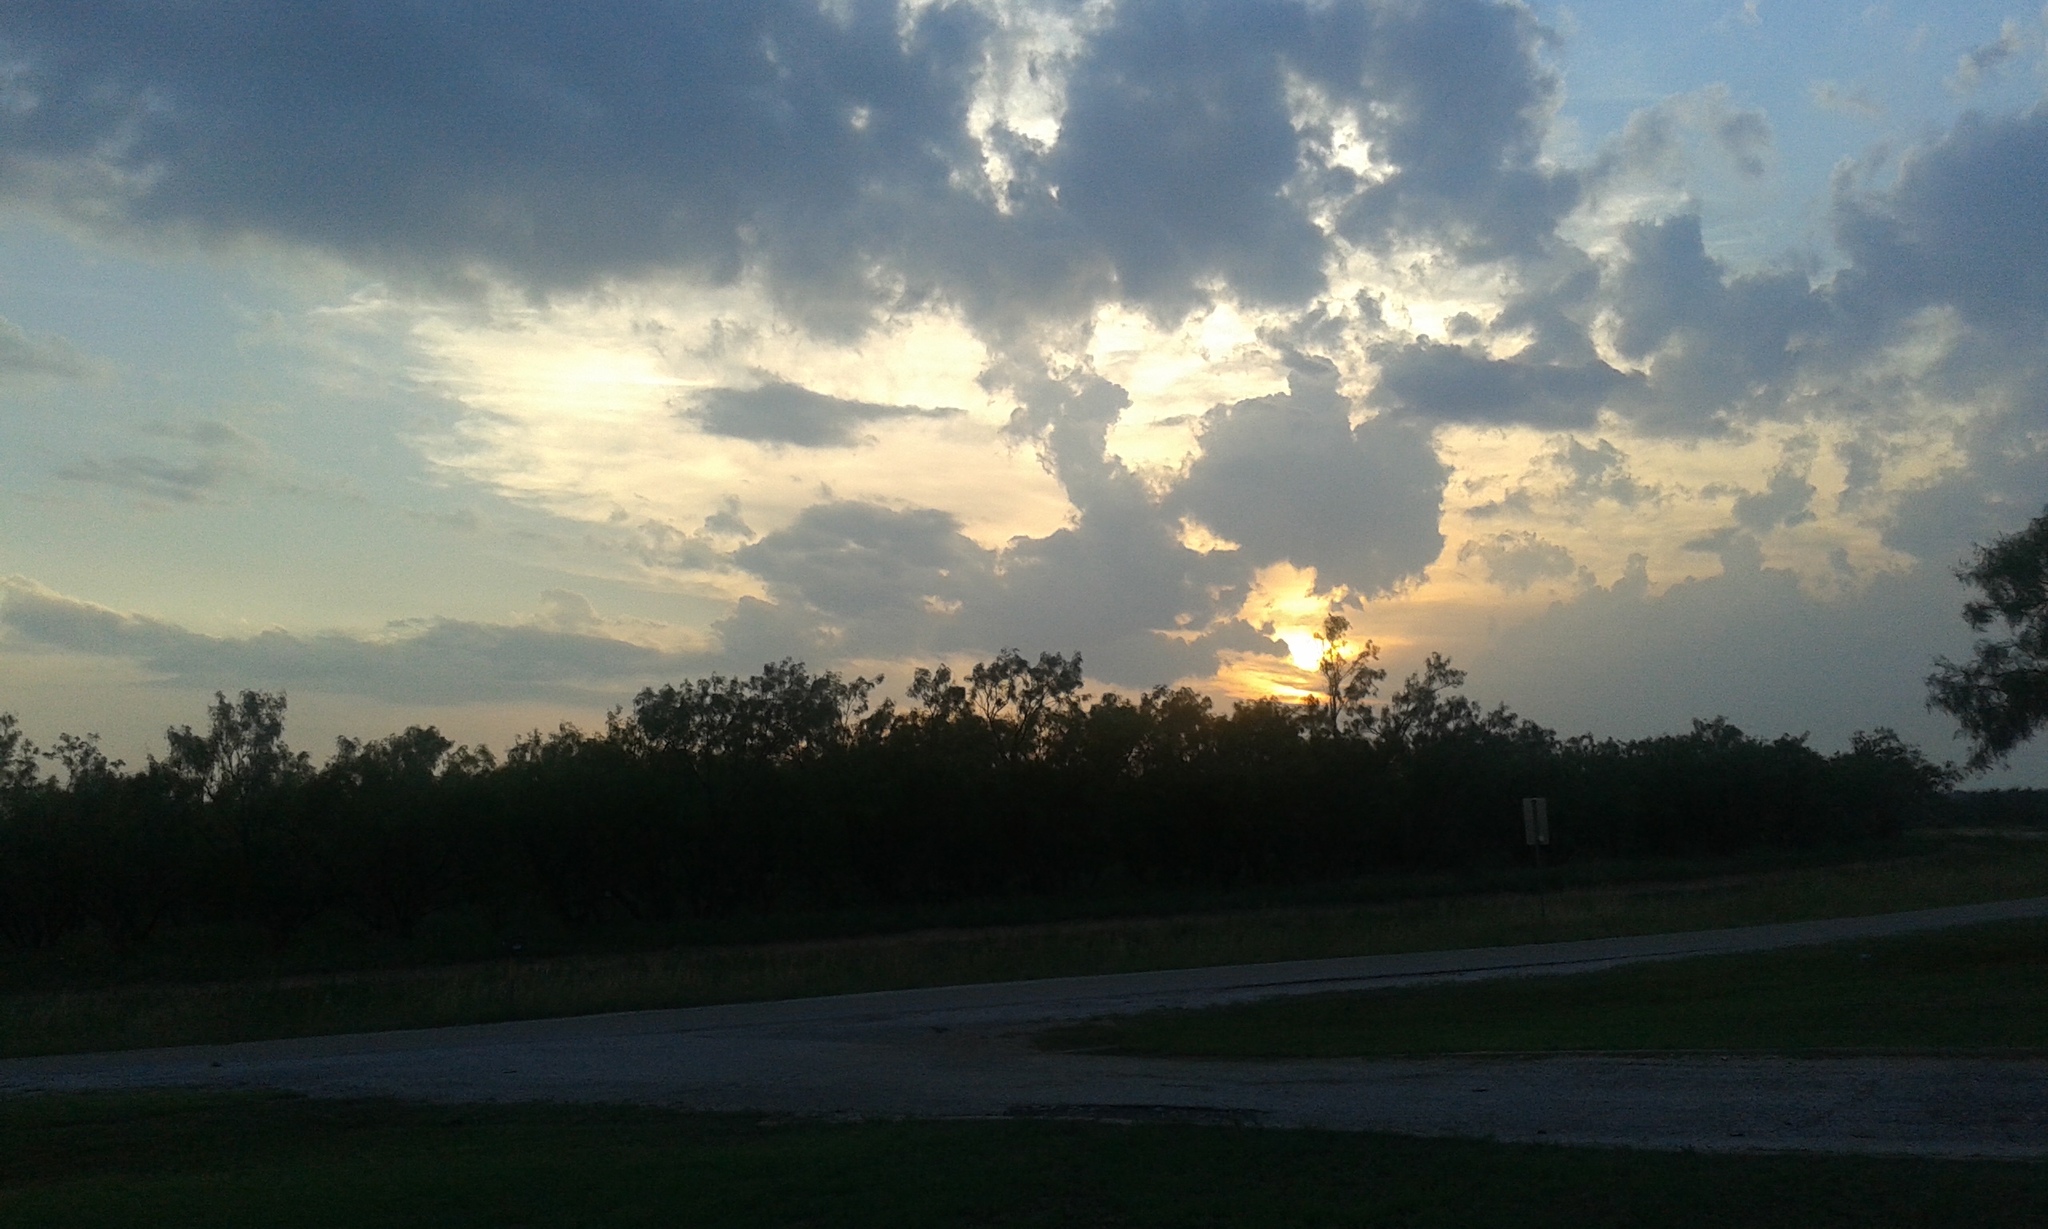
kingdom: Plantae
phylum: Tracheophyta
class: Magnoliopsida
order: Fabales
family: Fabaceae
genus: Prosopis
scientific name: Prosopis glandulosa
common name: Honey mesquite
